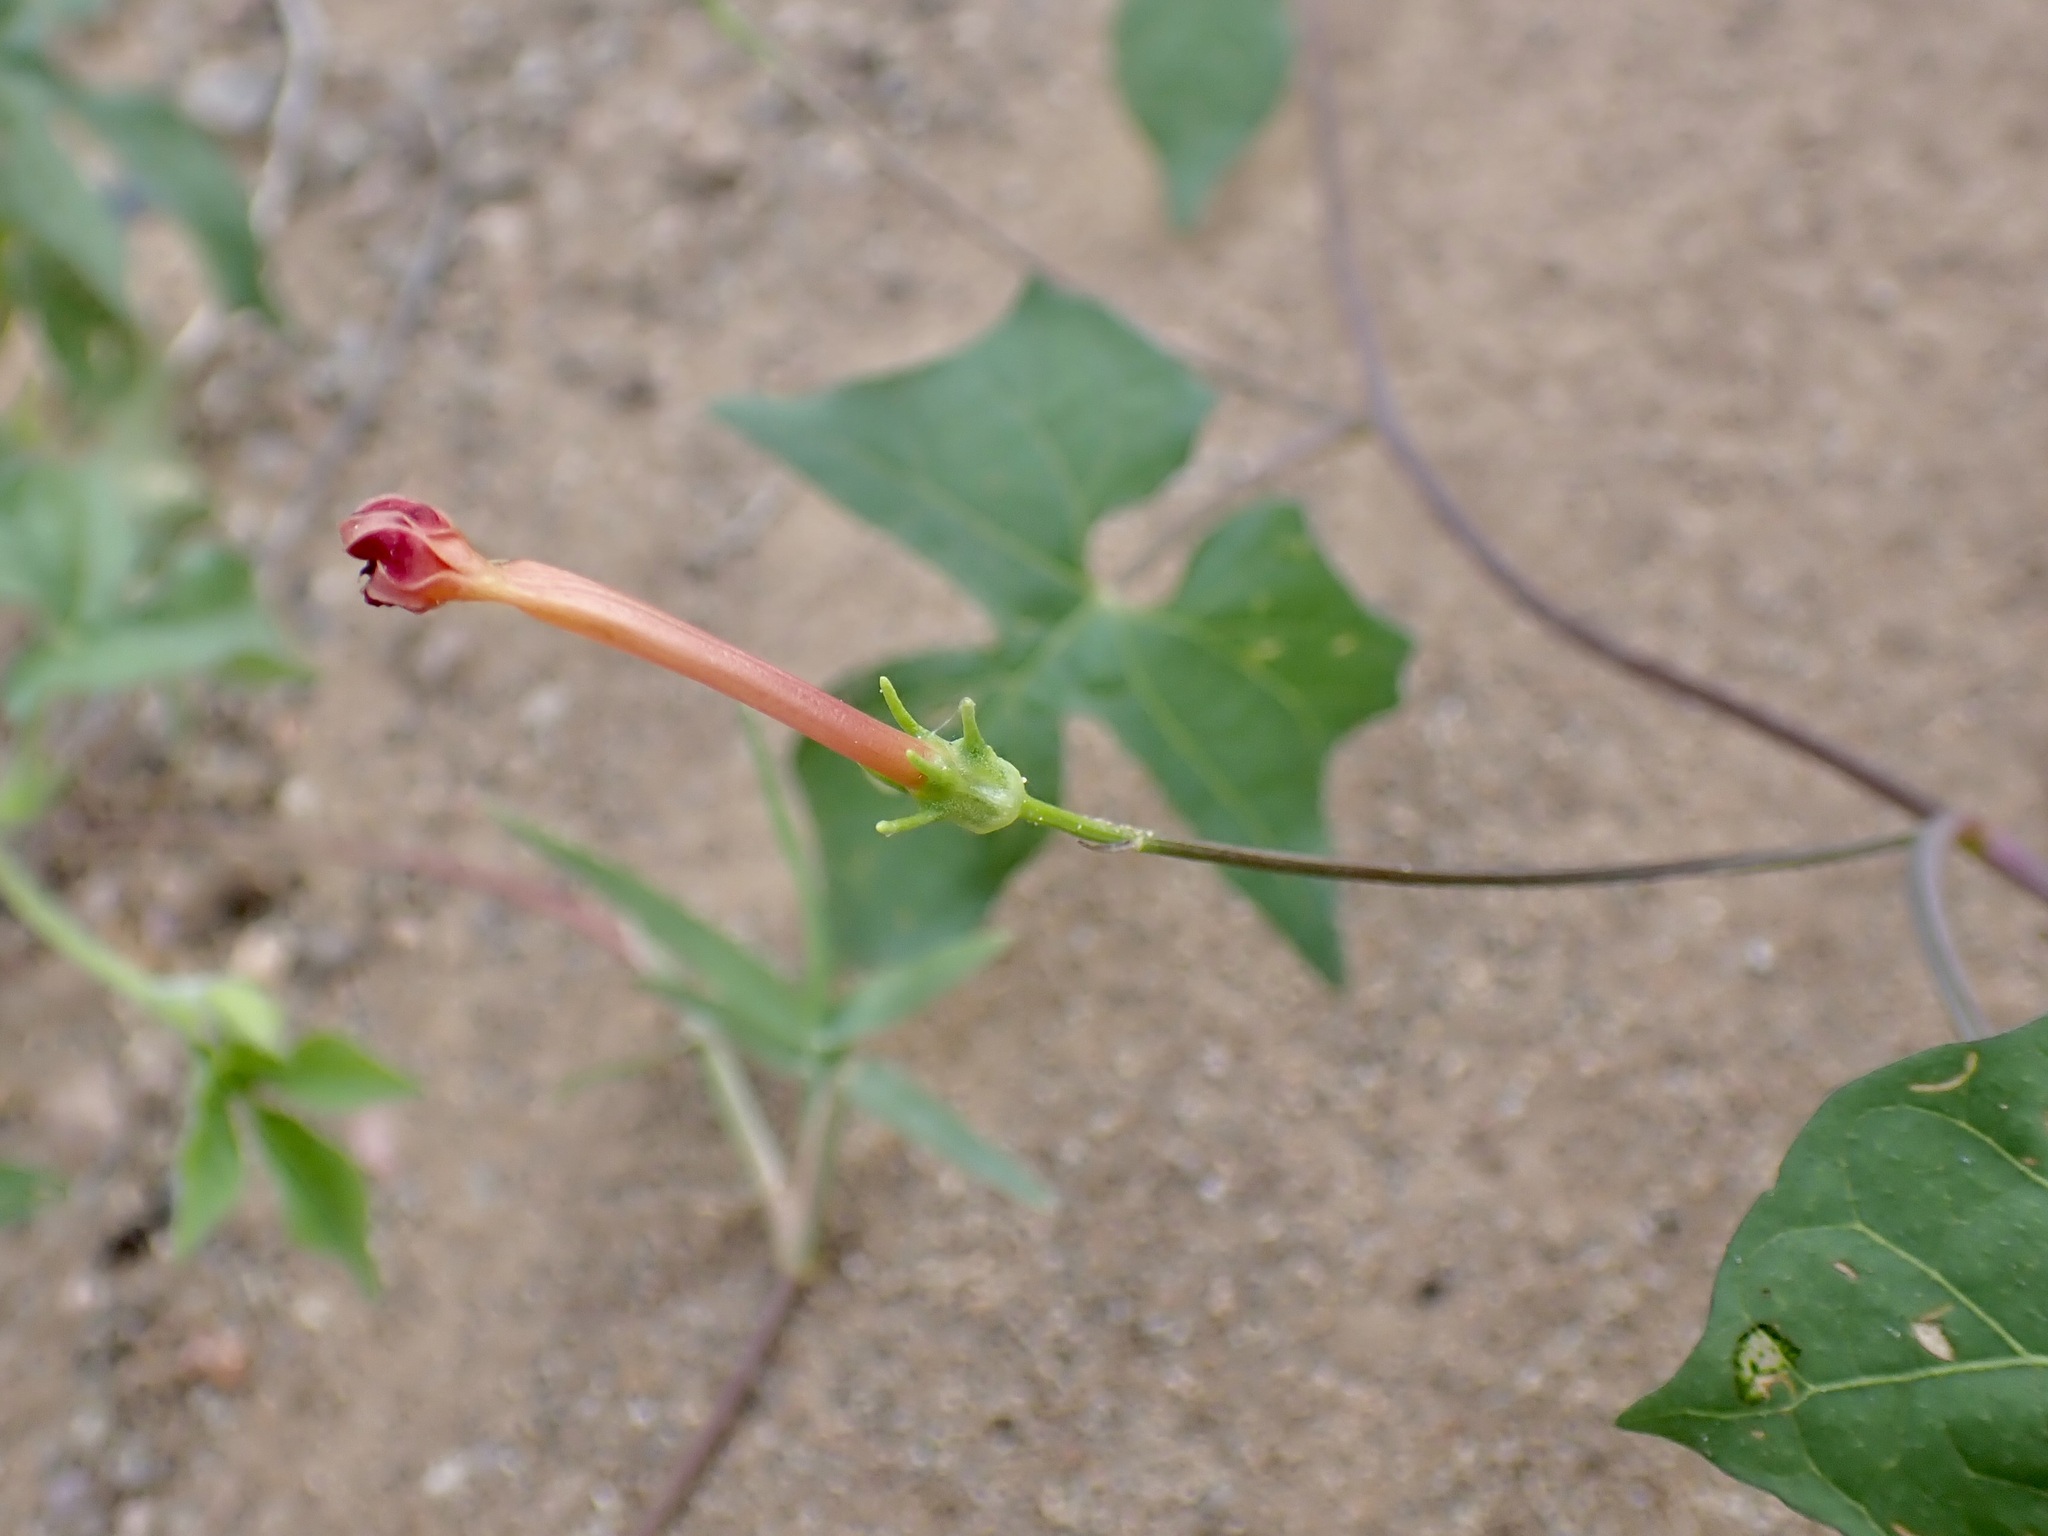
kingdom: Plantae
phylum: Tracheophyta
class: Magnoliopsida
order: Solanales
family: Convolvulaceae
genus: Ipomoea
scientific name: Ipomoea cristulata
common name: Trans-pecos morning-glory
